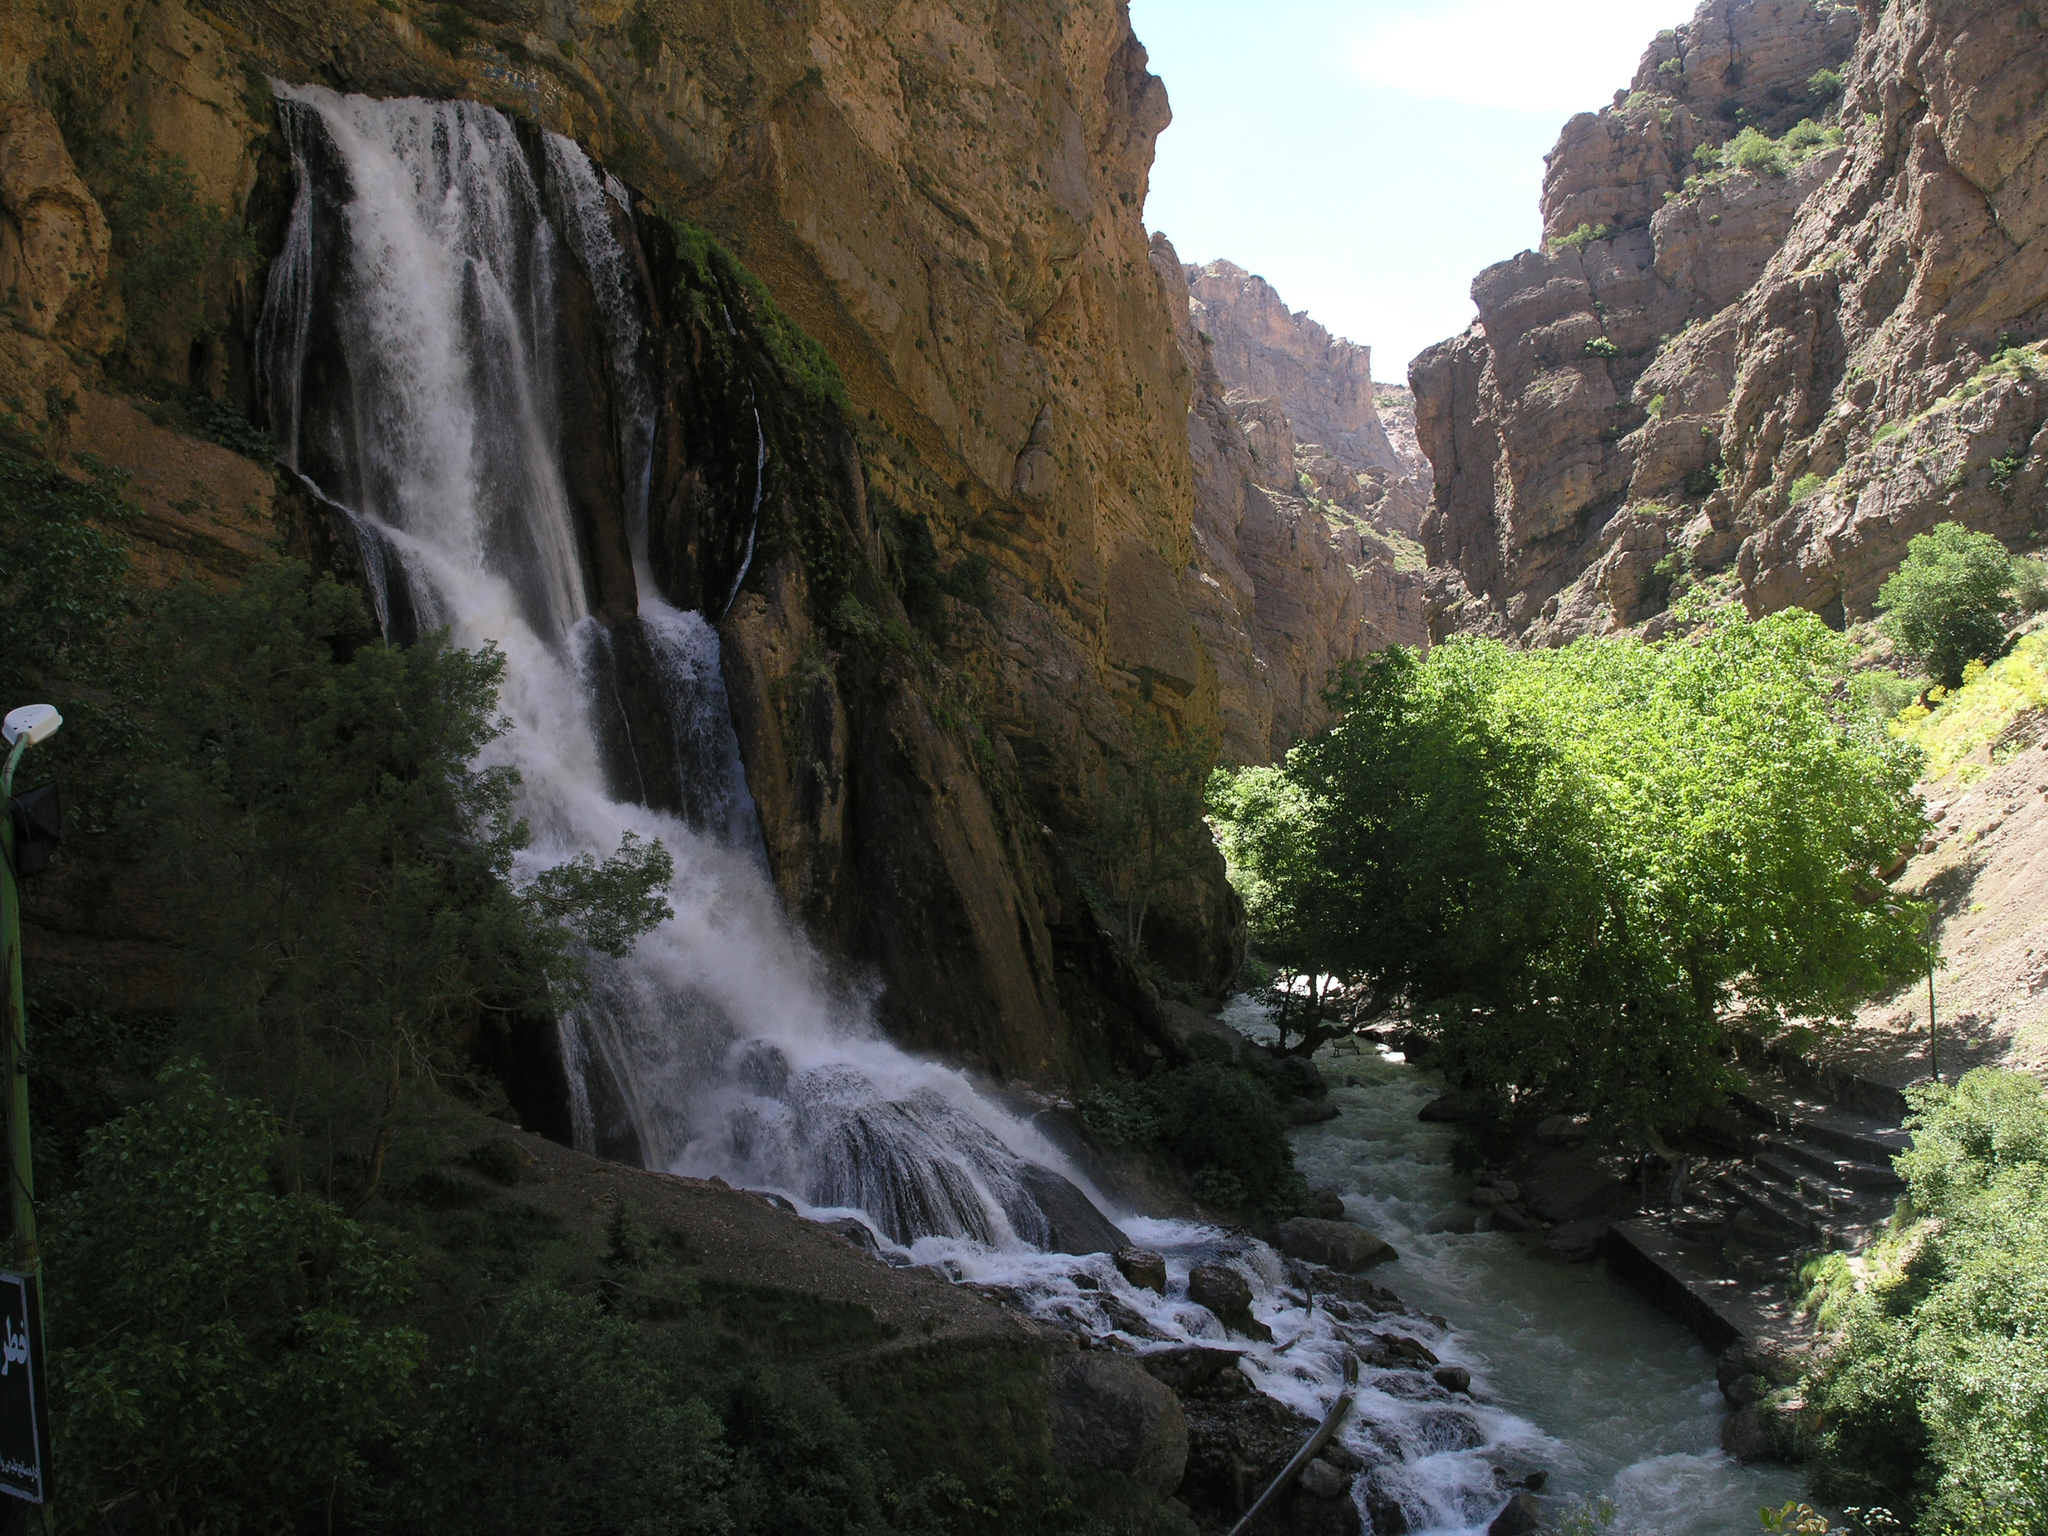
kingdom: Plantae
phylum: Tracheophyta
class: Magnoliopsida
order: Fagales
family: Juglandaceae
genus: Juglans
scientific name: Juglans regia
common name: Walnut
